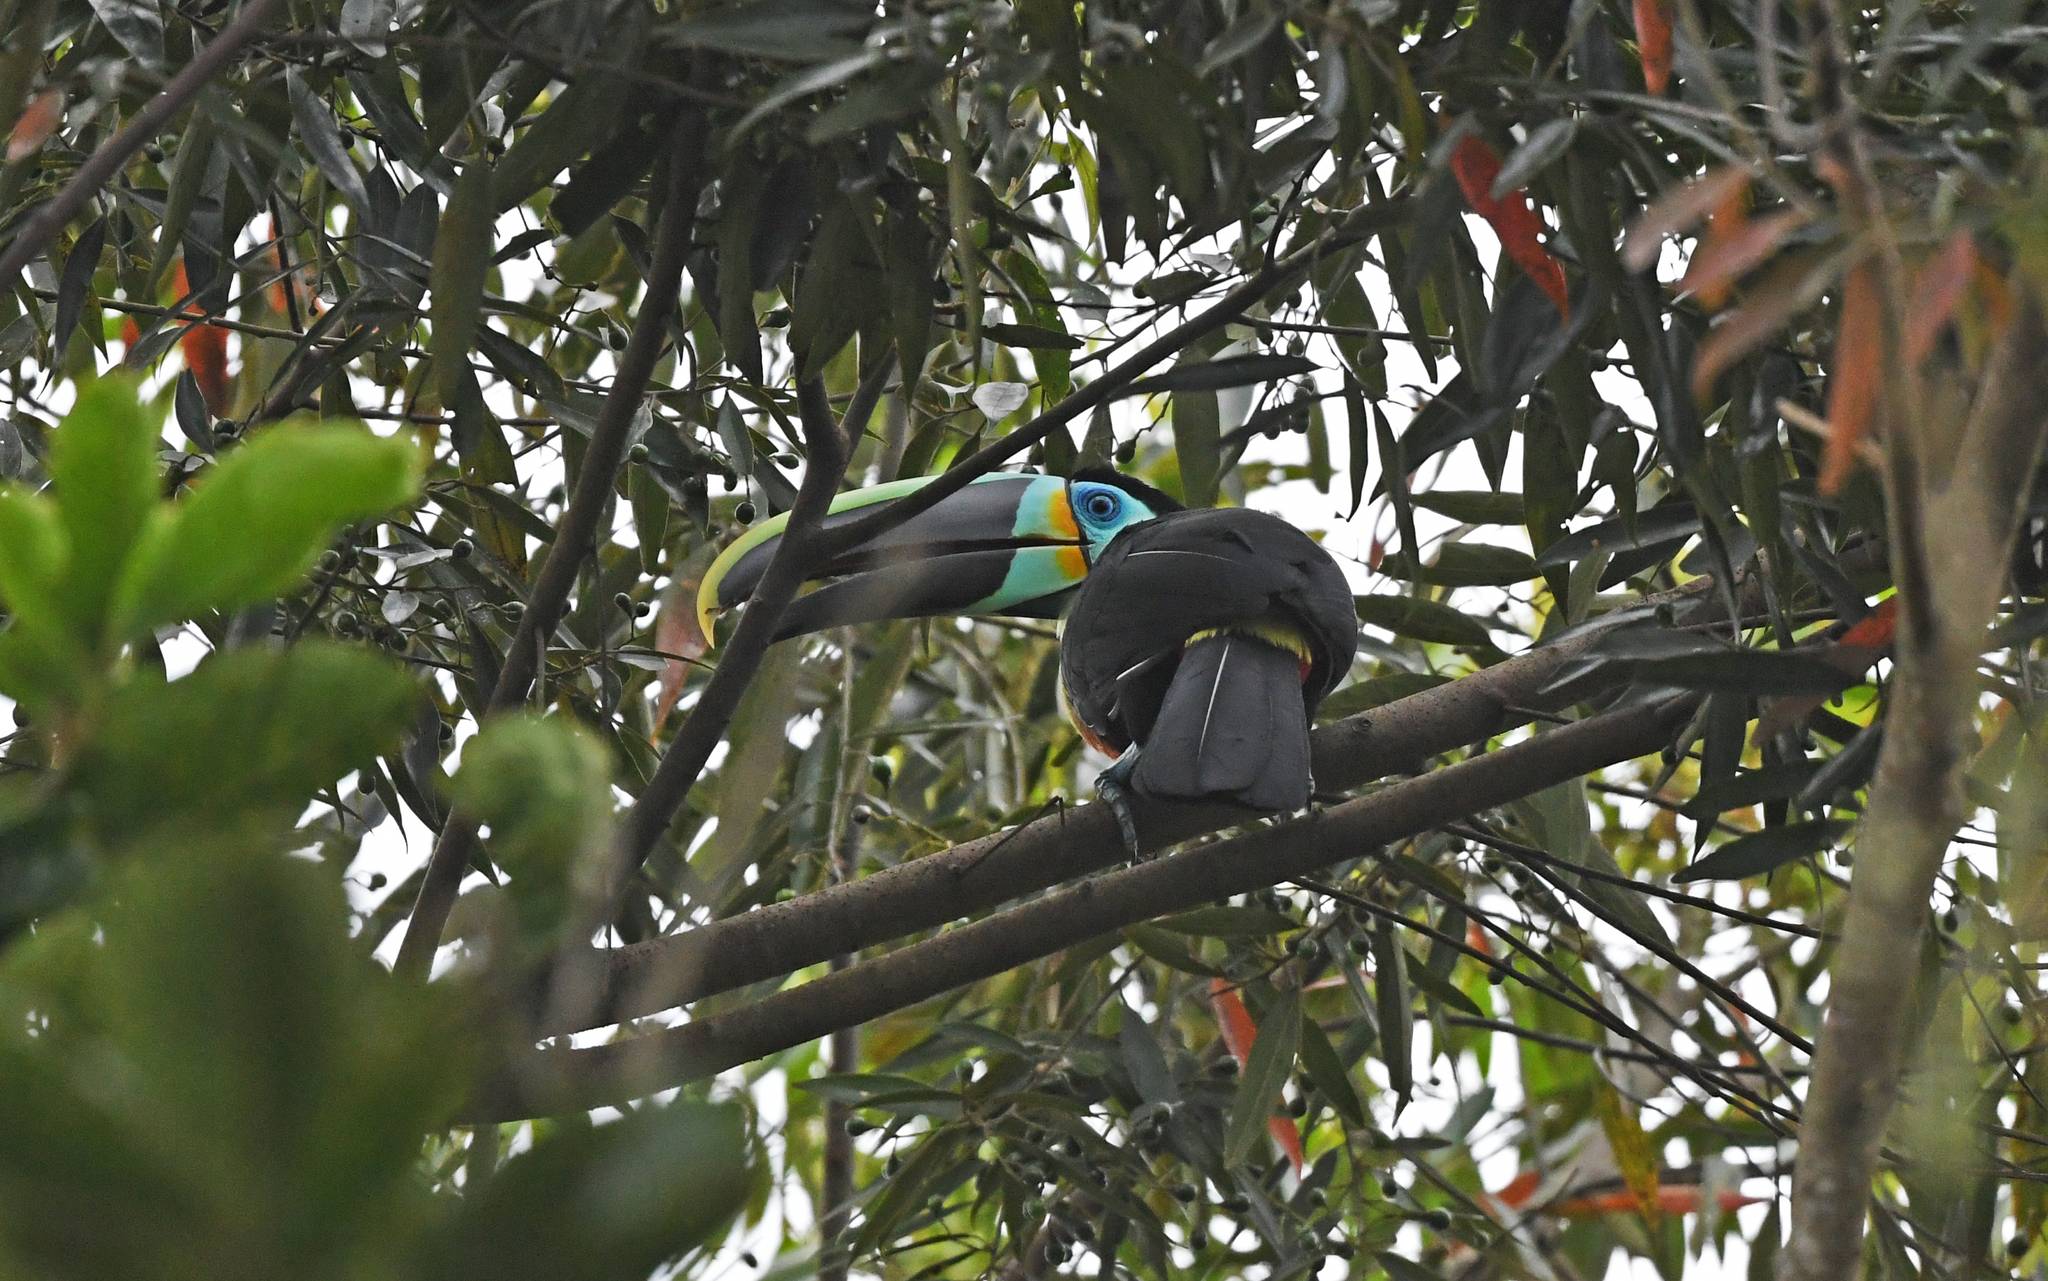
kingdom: Animalia
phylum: Chordata
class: Aves
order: Piciformes
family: Ramphastidae
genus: Ramphastos
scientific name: Ramphastos vitellinus
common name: Channel-billed toucan
